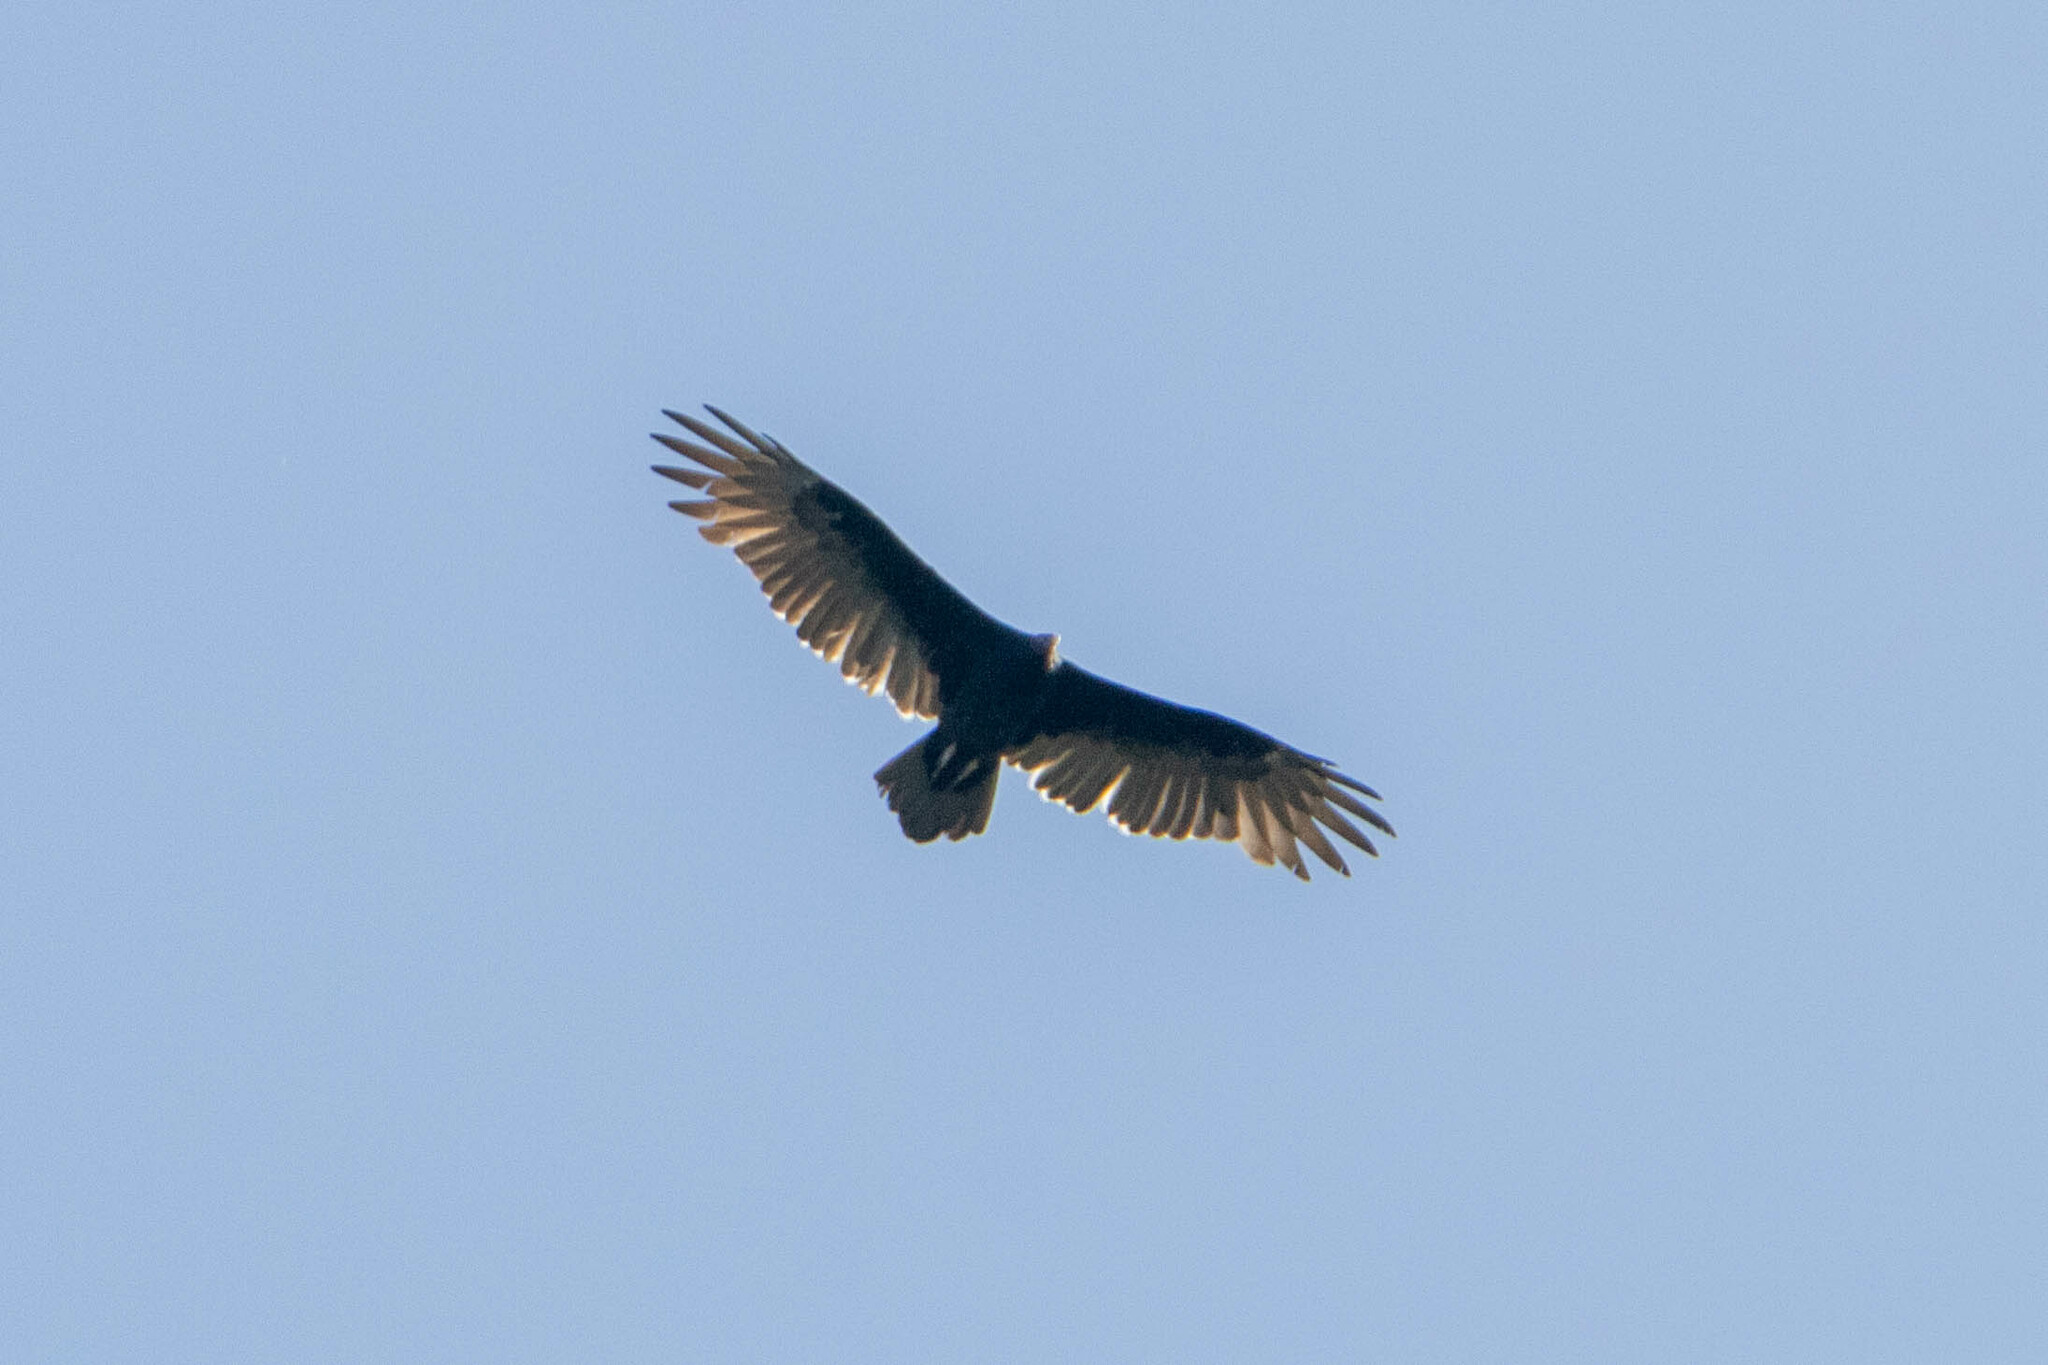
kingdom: Animalia
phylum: Chordata
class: Aves
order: Accipitriformes
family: Cathartidae
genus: Cathartes
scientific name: Cathartes aura
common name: Turkey vulture
